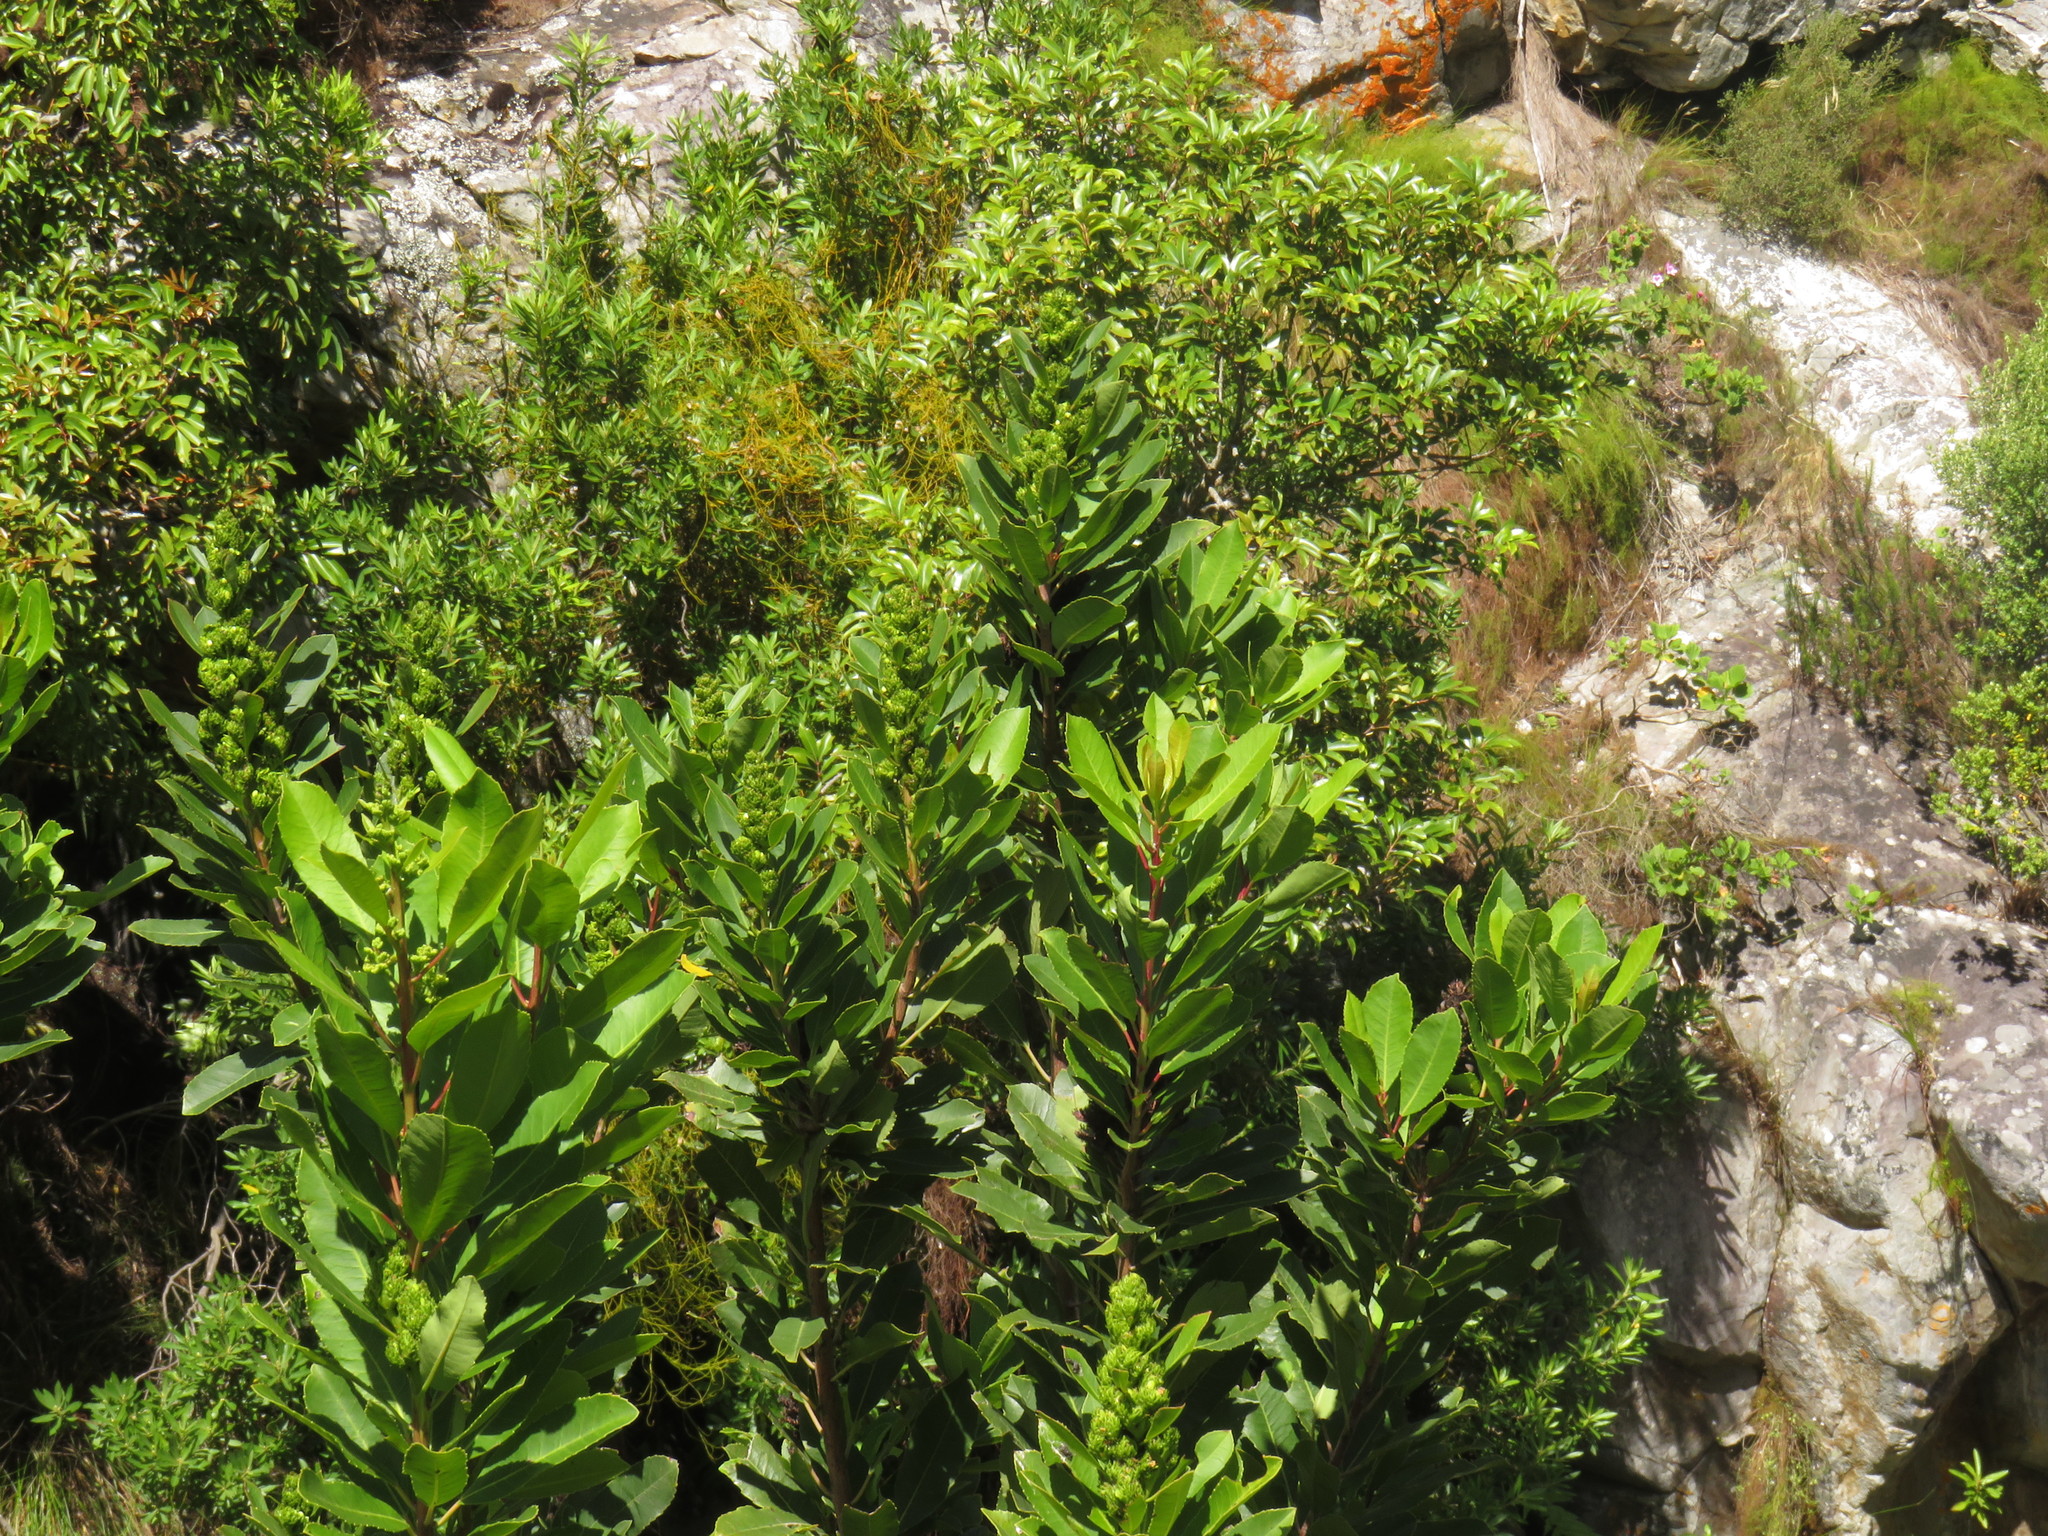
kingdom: Plantae
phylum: Tracheophyta
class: Magnoliopsida
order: Oxalidales
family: Cunoniaceae
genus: Cunonia
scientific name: Cunonia capensis
